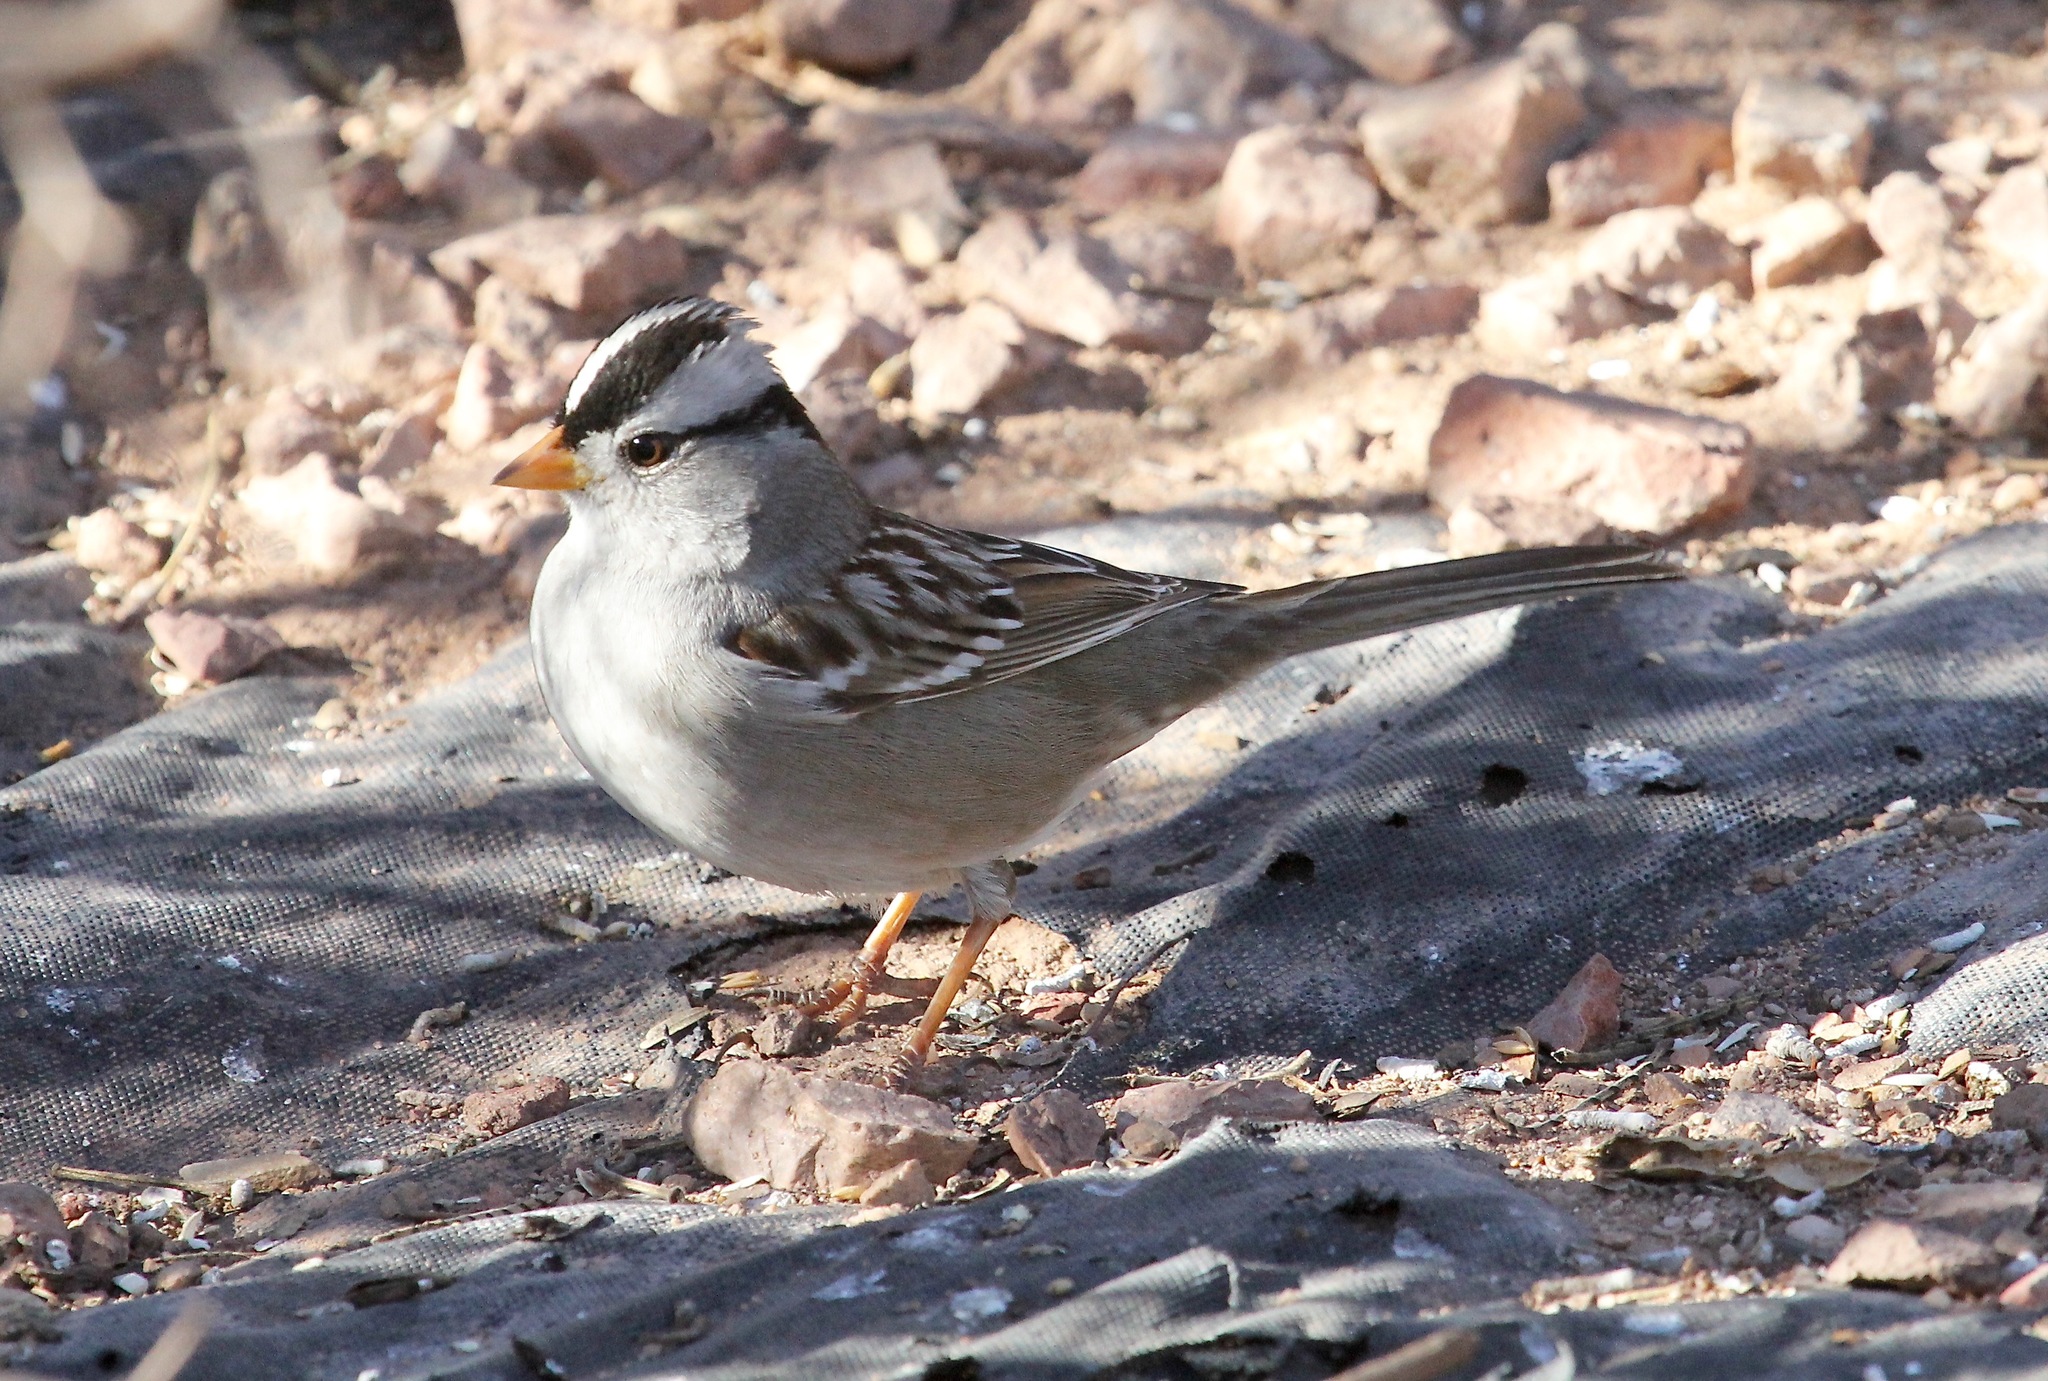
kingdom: Animalia
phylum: Chordata
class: Aves
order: Passeriformes
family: Passerellidae
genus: Zonotrichia
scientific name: Zonotrichia leucophrys
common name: White-crowned sparrow
